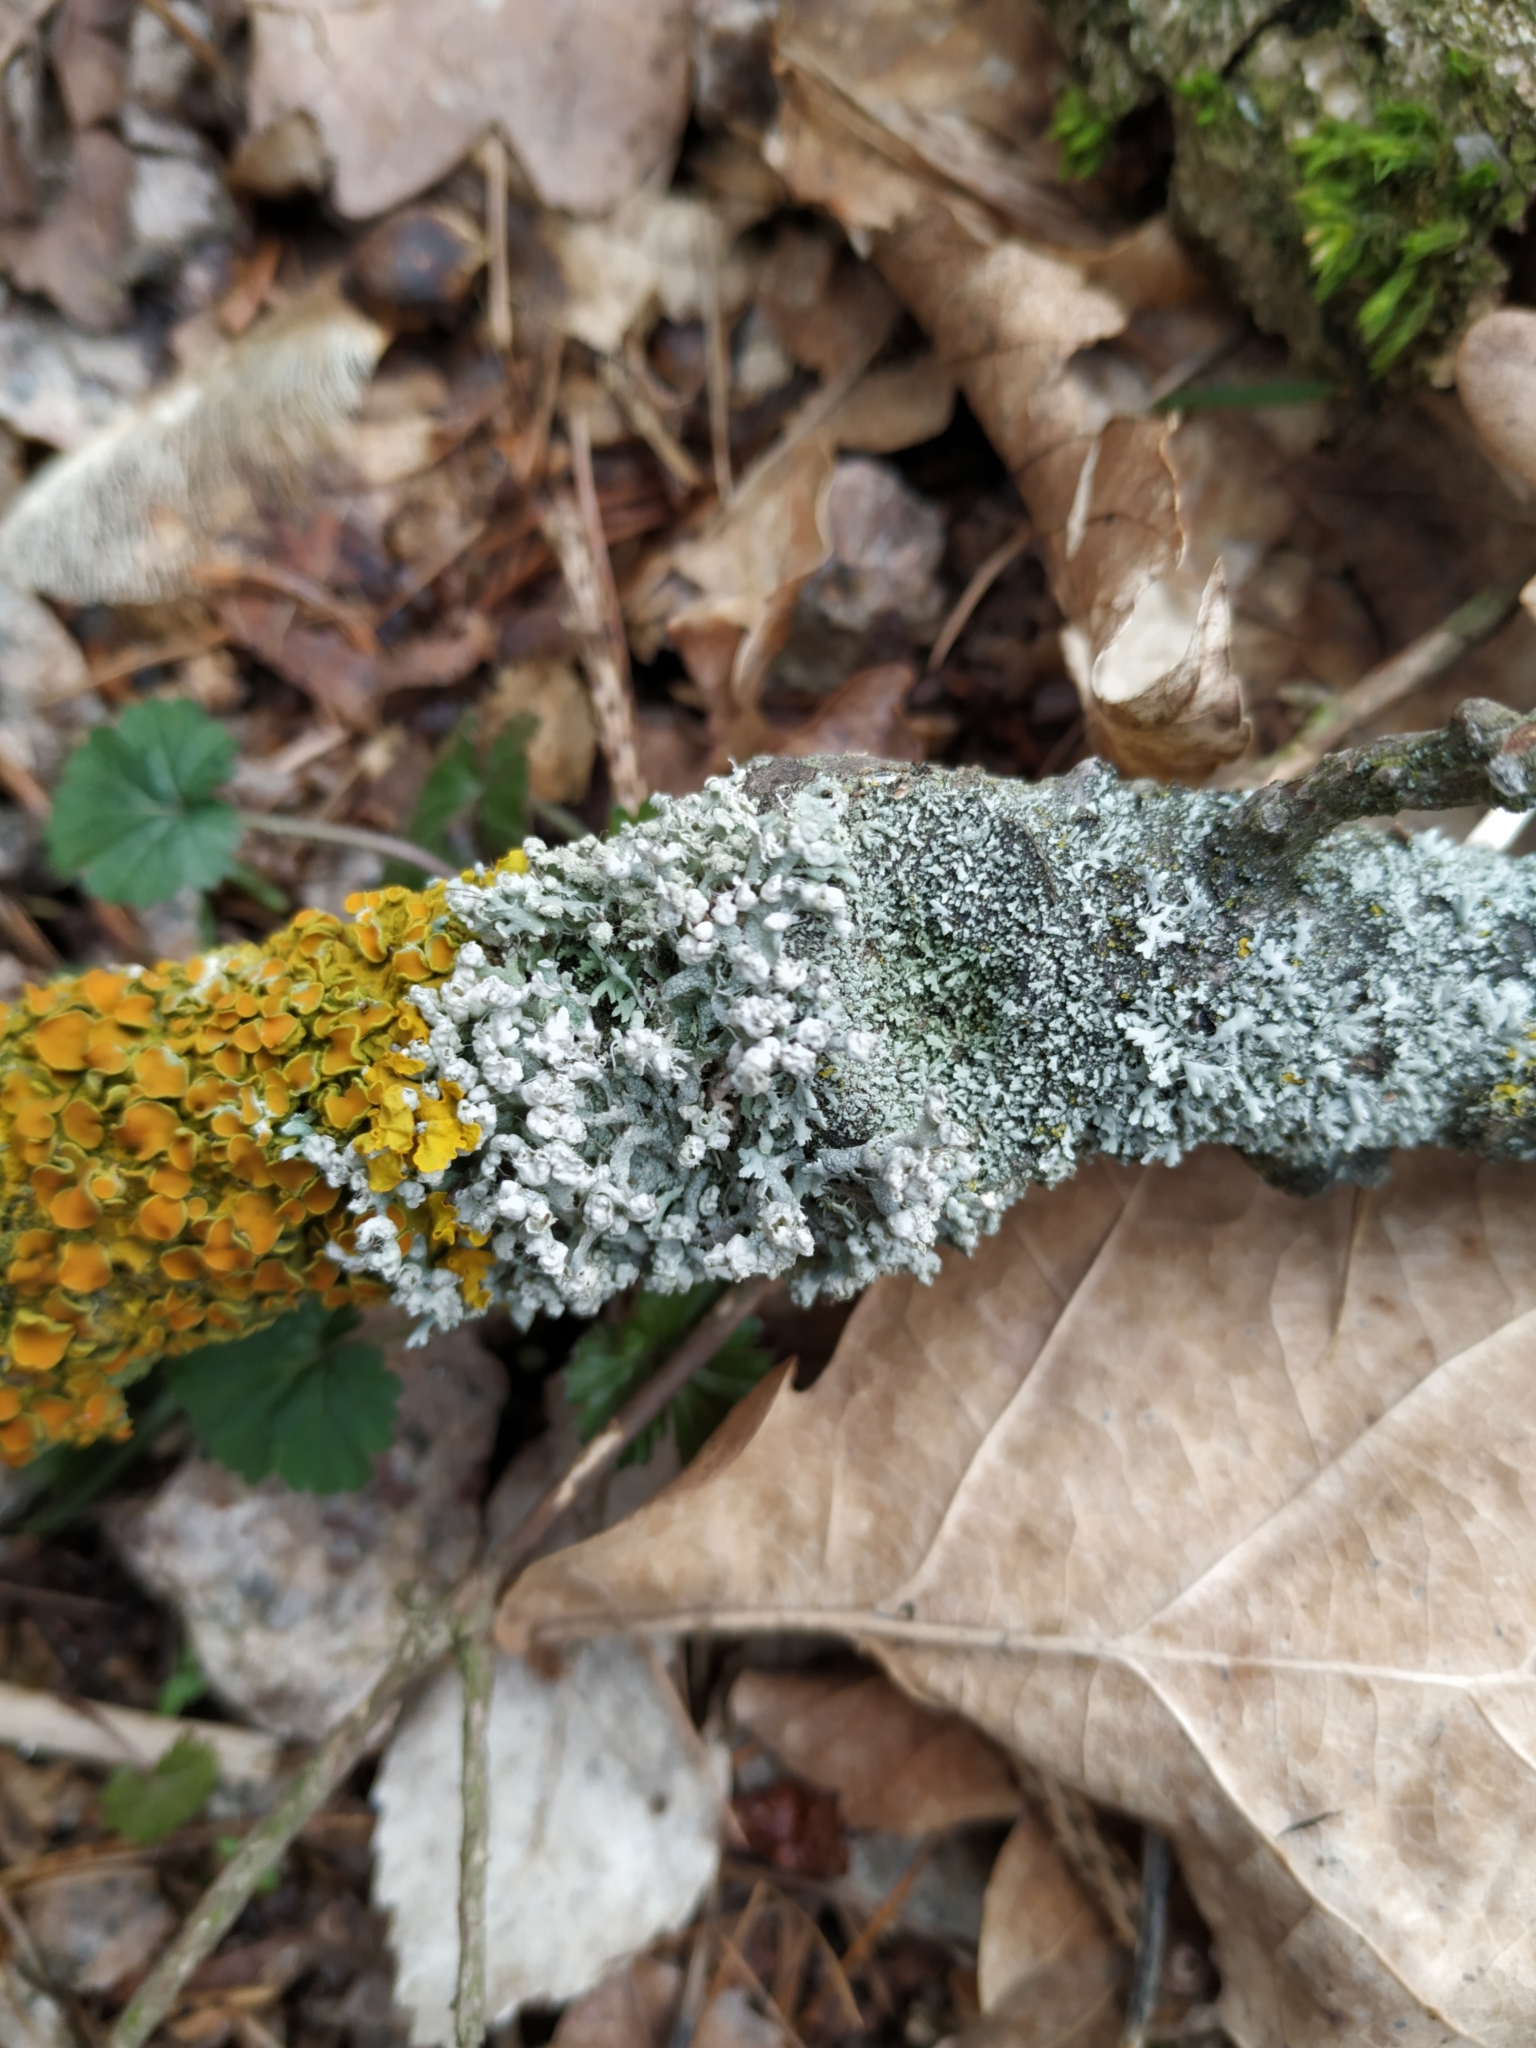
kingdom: Fungi
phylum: Ascomycota
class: Lecanoromycetes
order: Caliciales
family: Physciaceae
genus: Physcia
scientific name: Physcia adscendens
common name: Hooded rosette lichen
